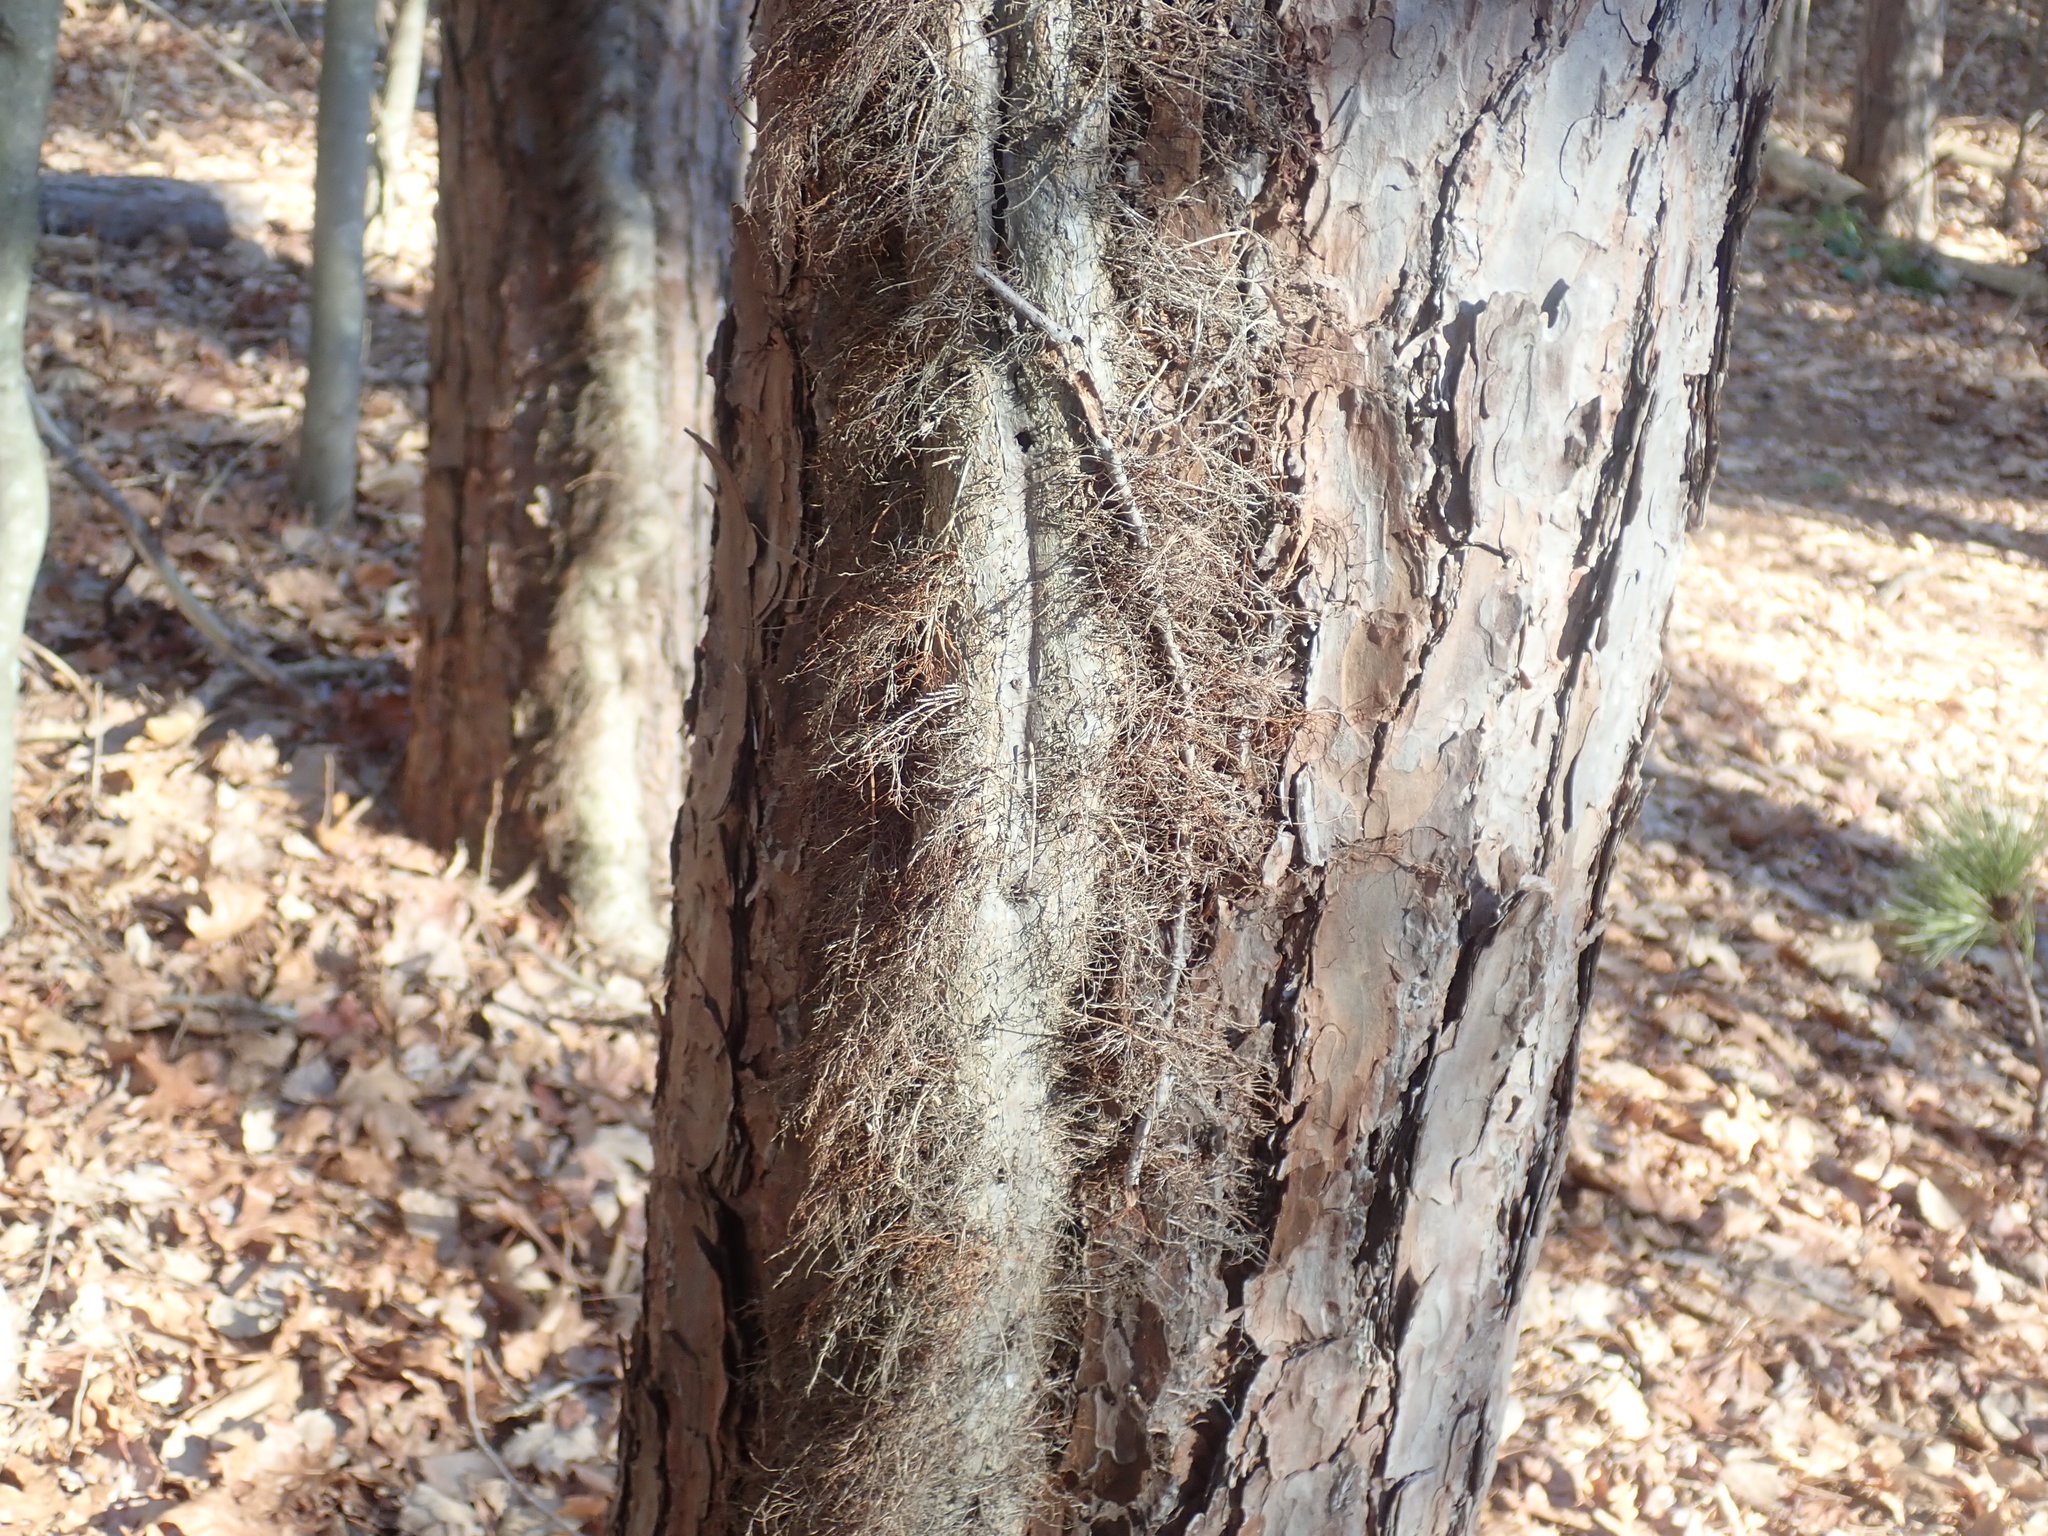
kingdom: Plantae
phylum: Tracheophyta
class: Magnoliopsida
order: Sapindales
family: Anacardiaceae
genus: Toxicodendron
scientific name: Toxicodendron radicans
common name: Poison ivy
